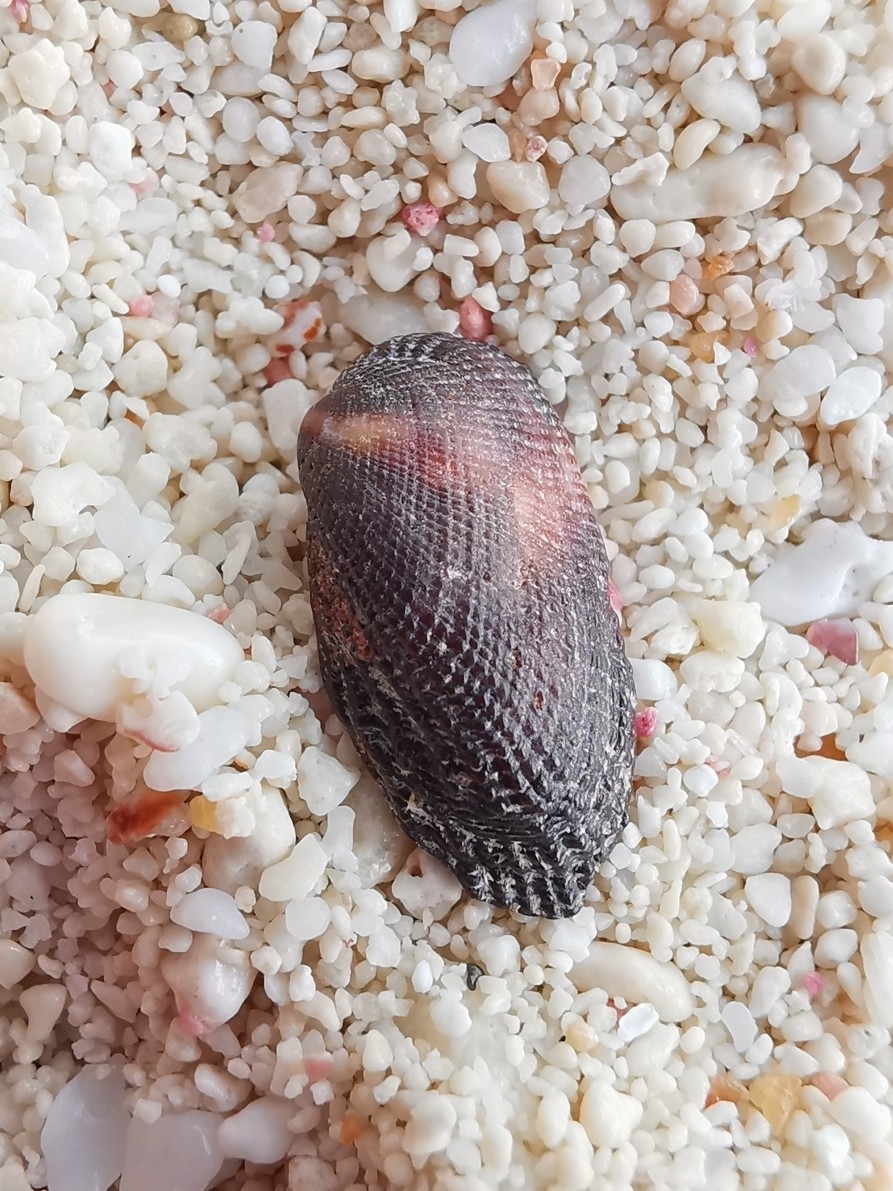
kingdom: Animalia
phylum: Mollusca
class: Bivalvia
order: Arcida
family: Arcidae
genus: Barbatia
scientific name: Barbatia domingensis
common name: White miniature ark
